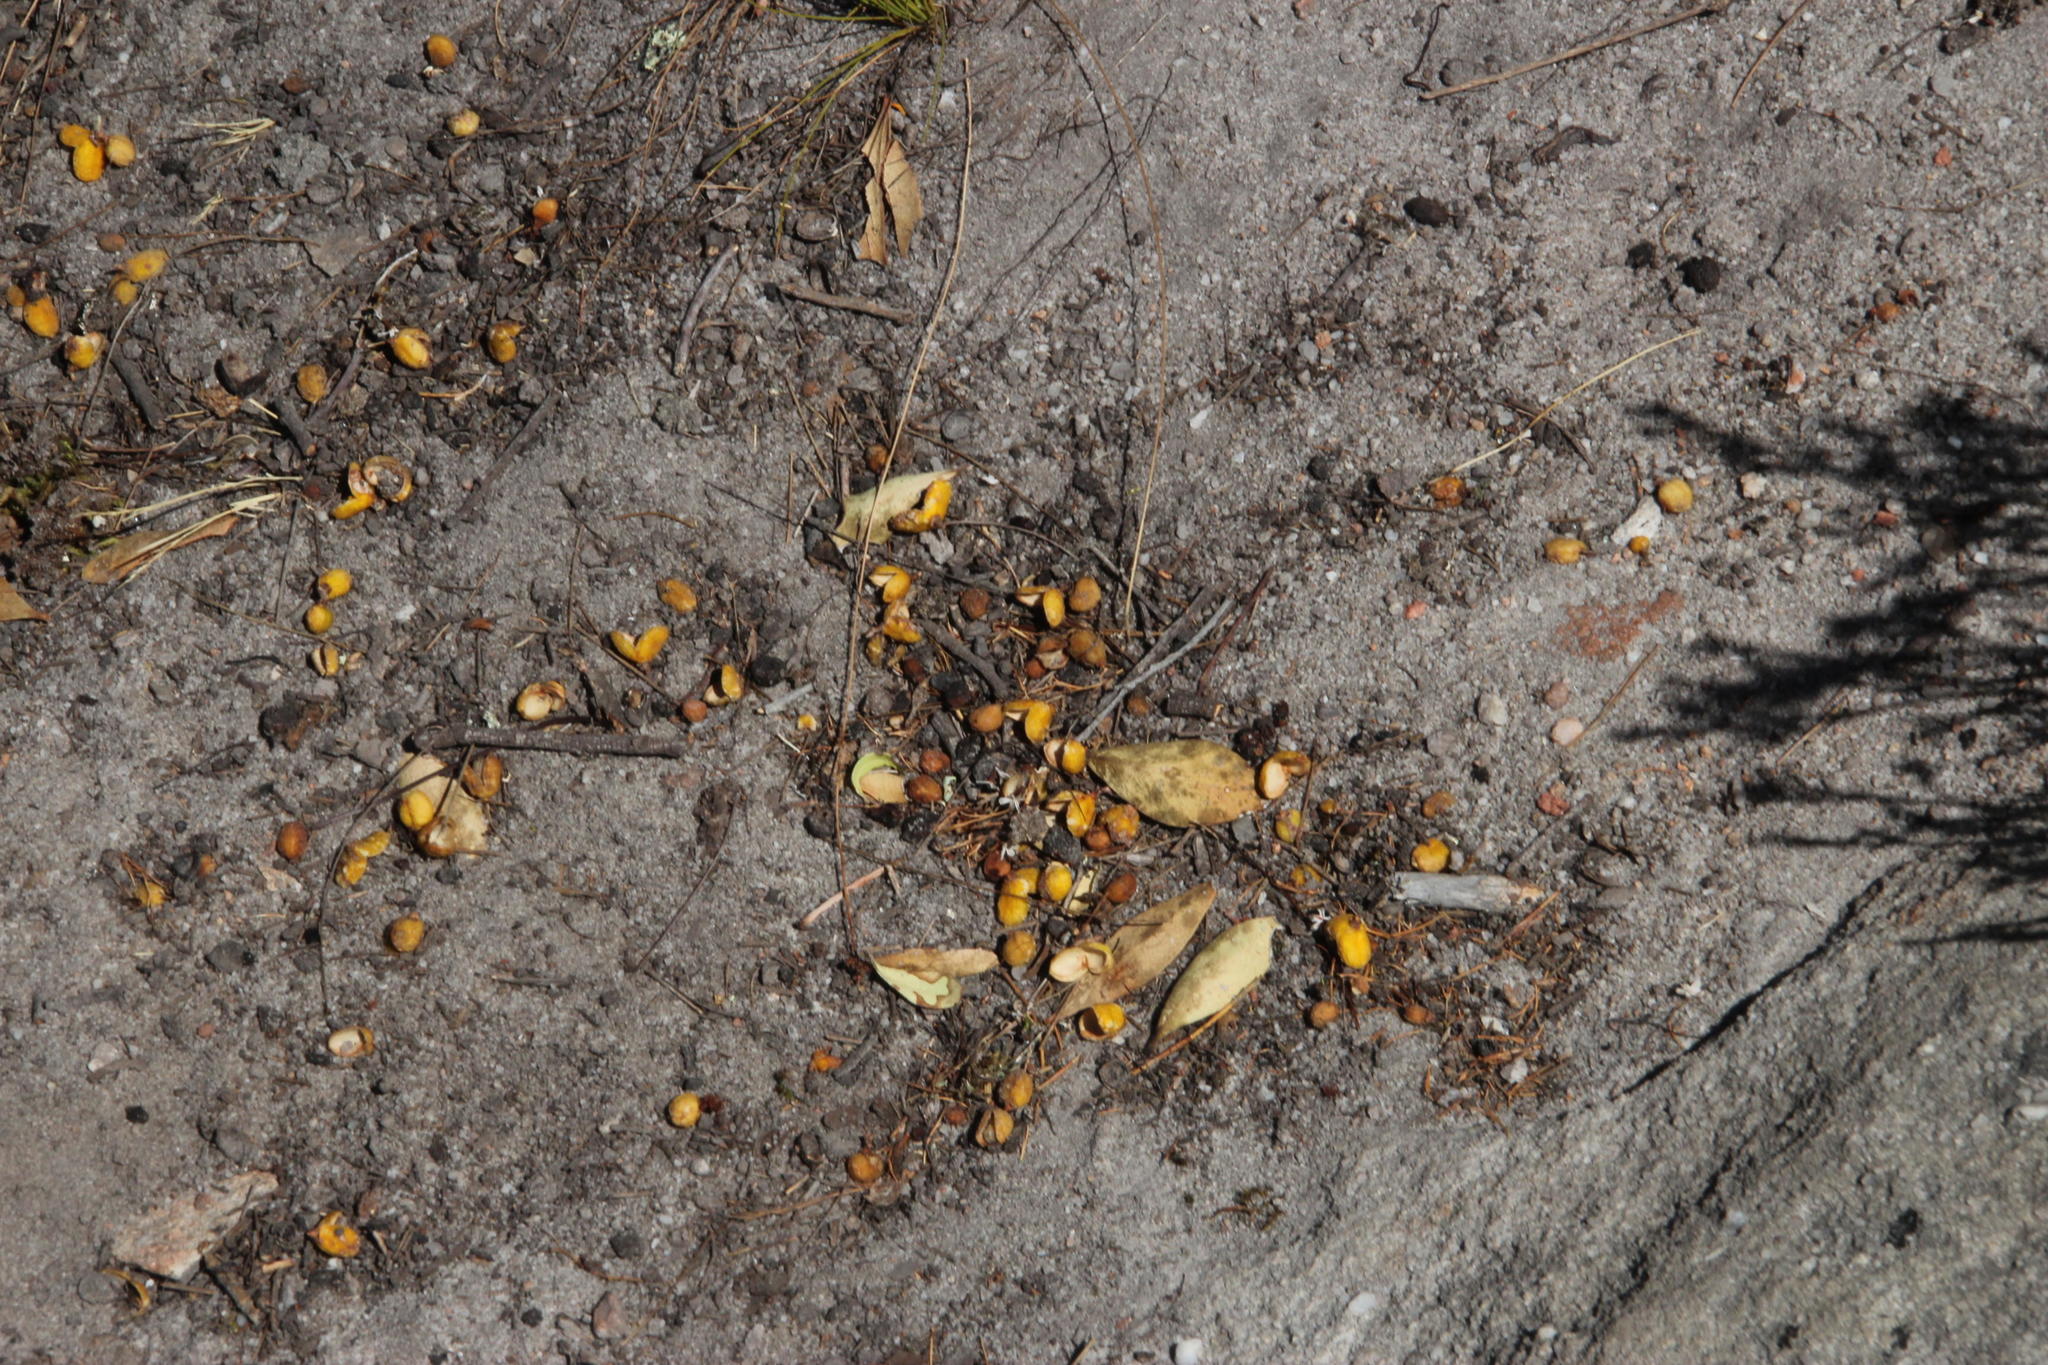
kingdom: Plantae
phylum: Tracheophyta
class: Magnoliopsida
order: Celastrales
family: Celastraceae
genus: Gymnosporia
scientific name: Gymnosporia laurina
